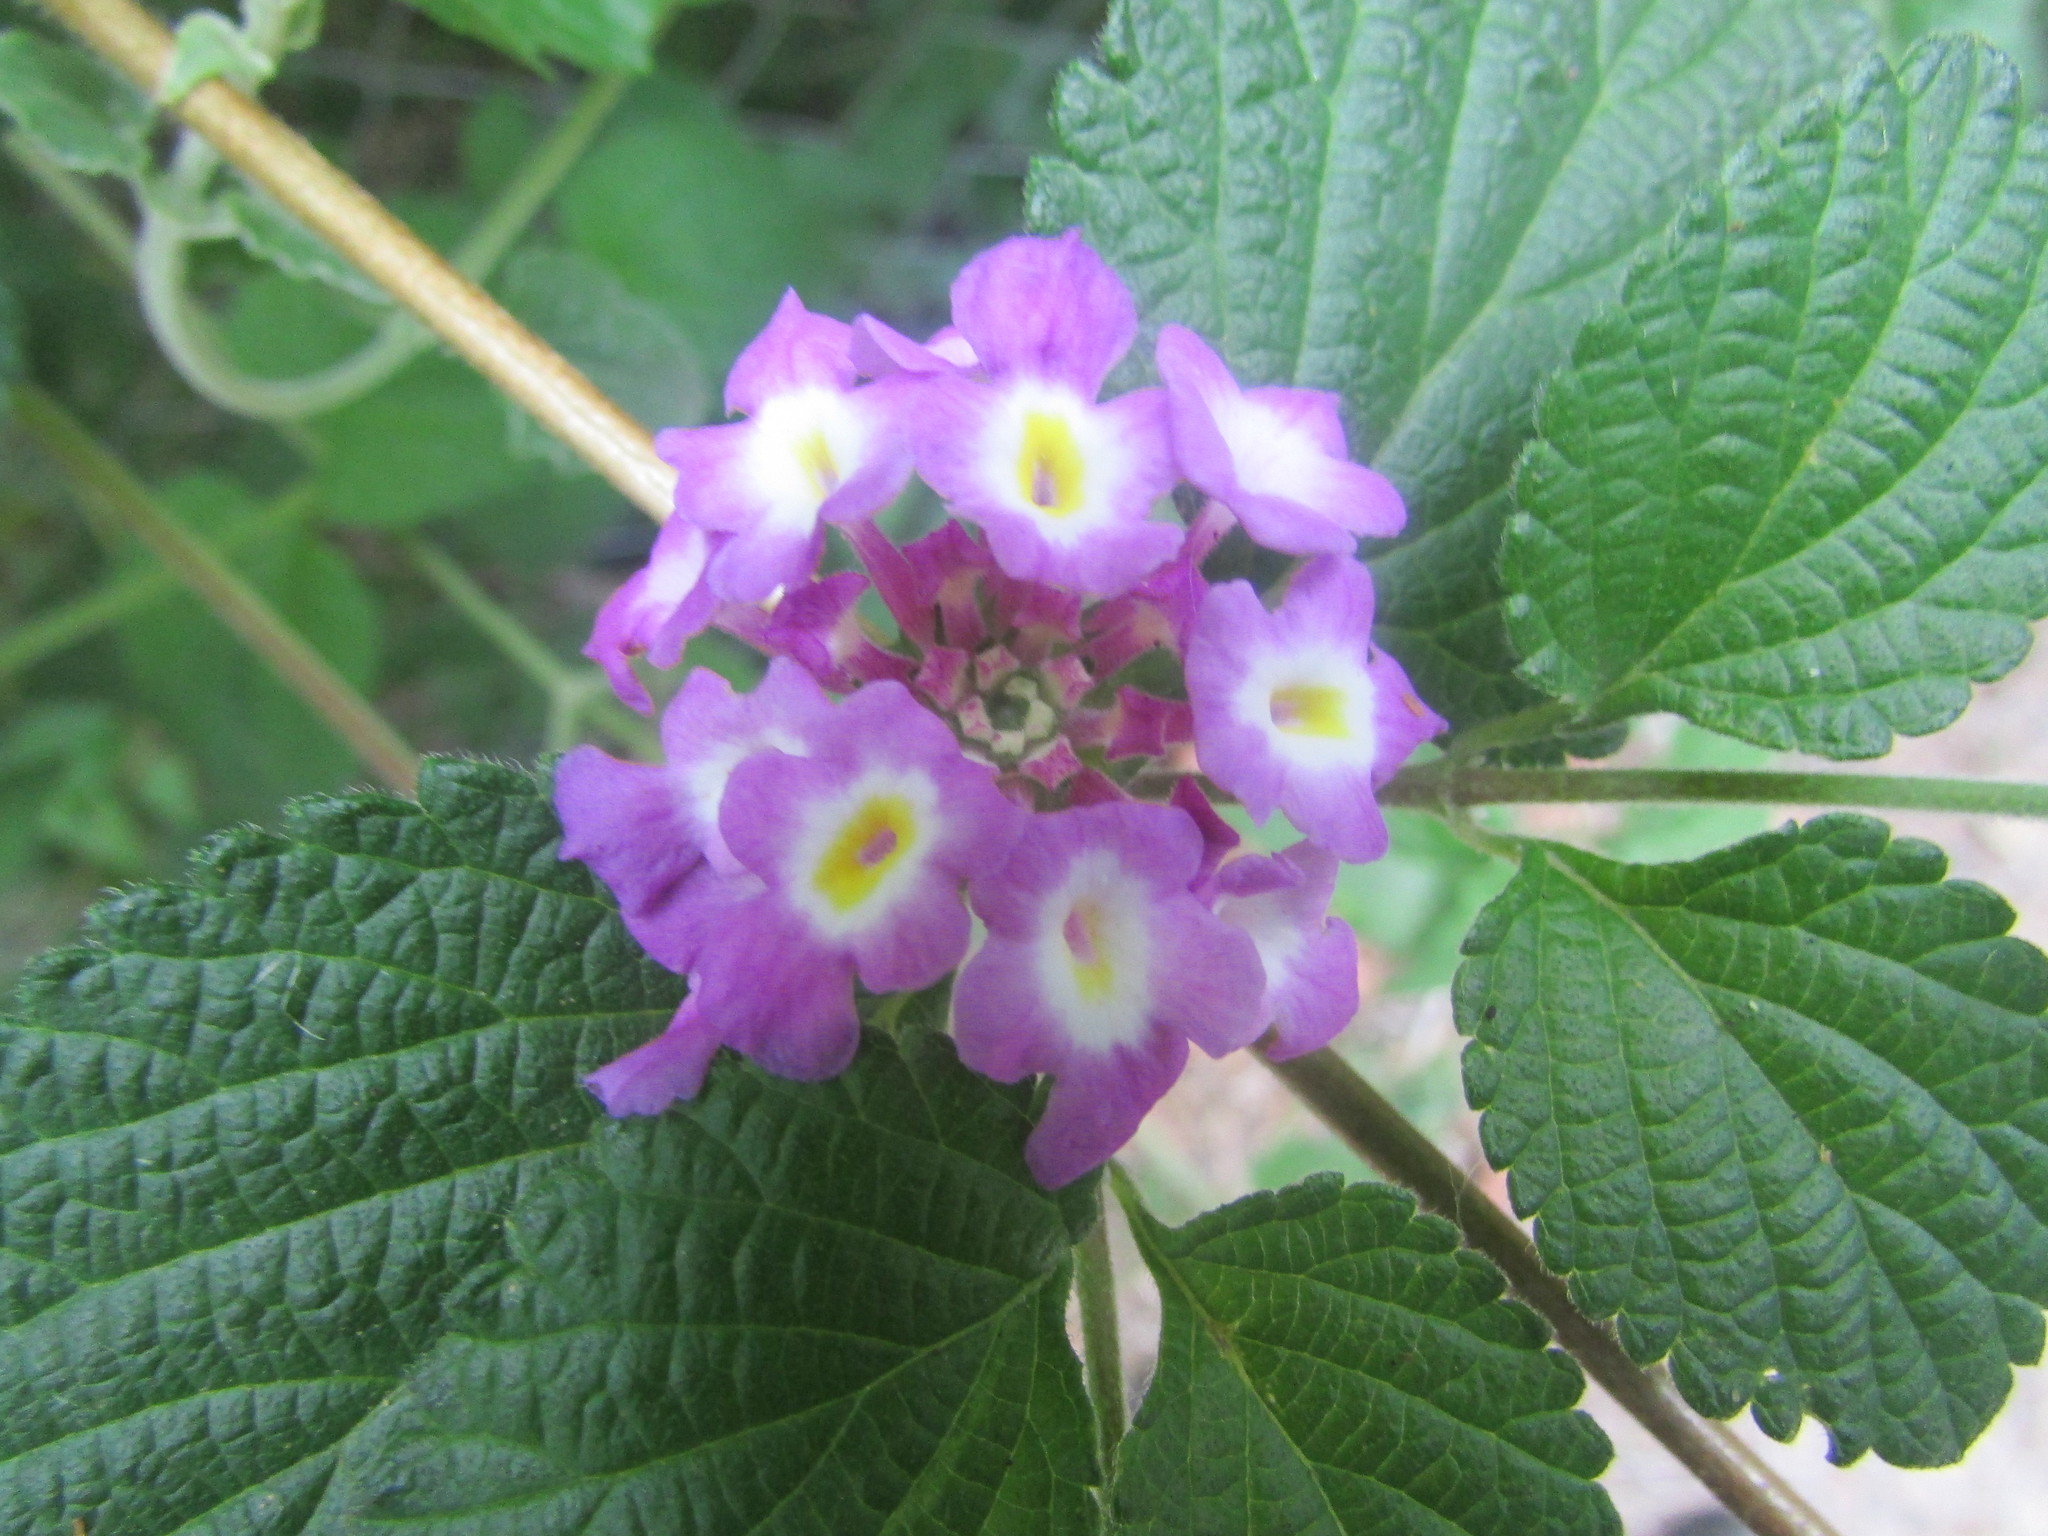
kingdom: Plantae
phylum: Tracheophyta
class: Magnoliopsida
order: Lamiales
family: Verbenaceae
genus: Lantana
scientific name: Lantana megapotamica
